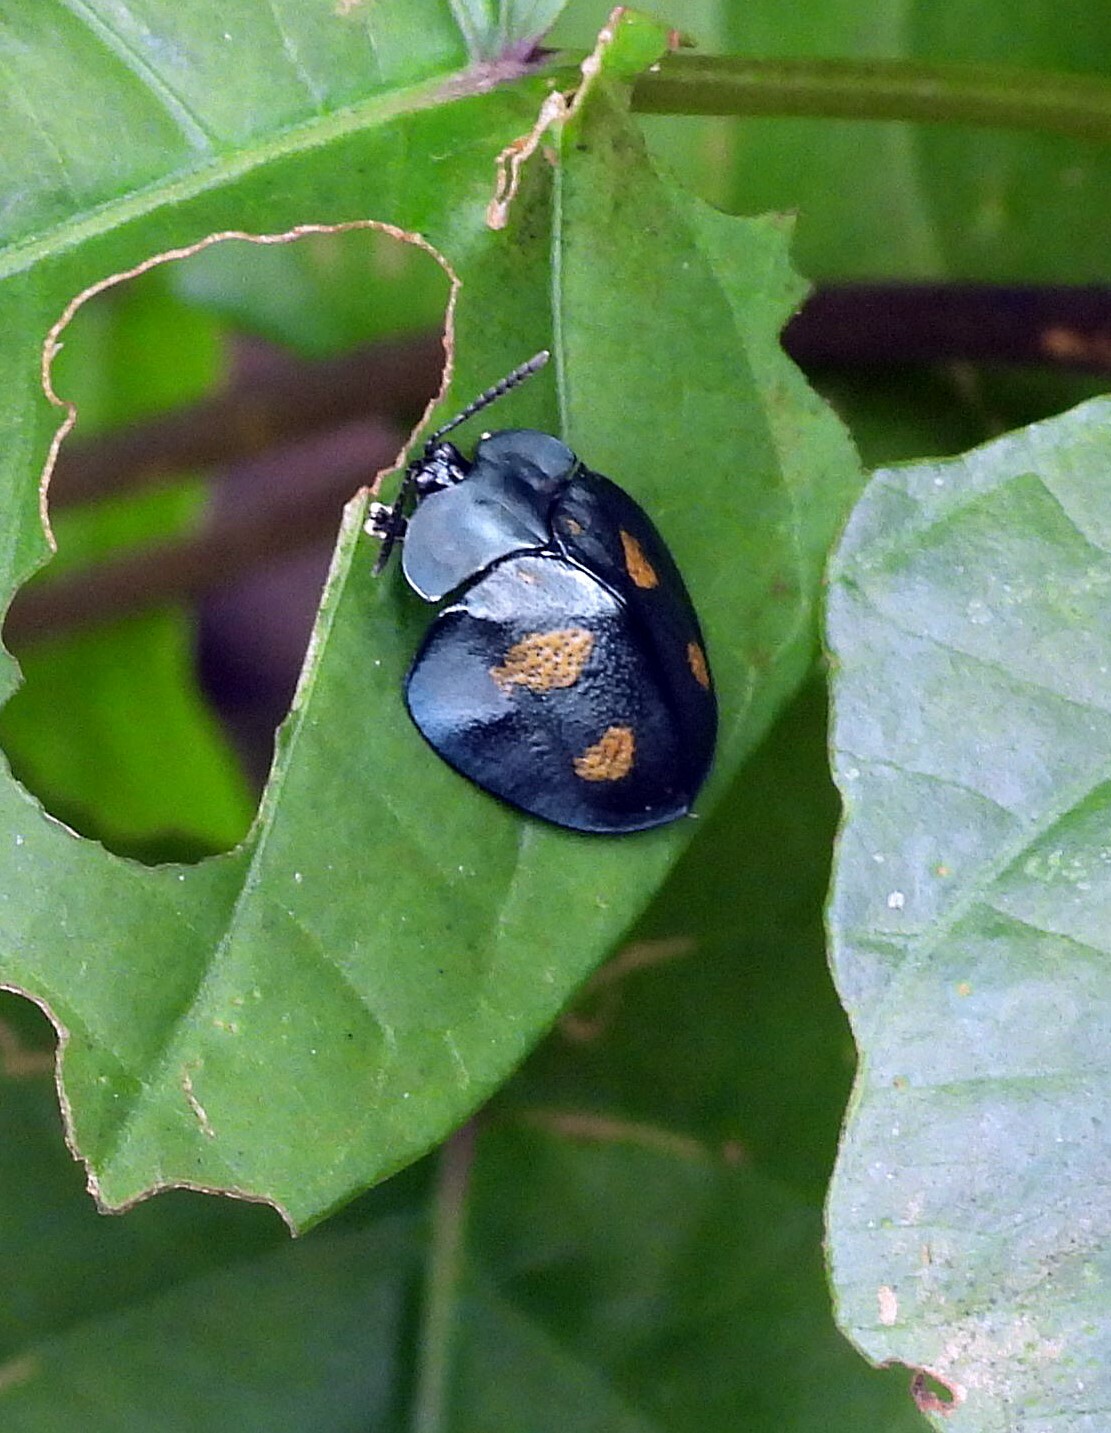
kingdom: Animalia
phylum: Arthropoda
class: Insecta
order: Coleoptera
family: Chrysomelidae
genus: Stolas
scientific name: Stolas sexplagiata
